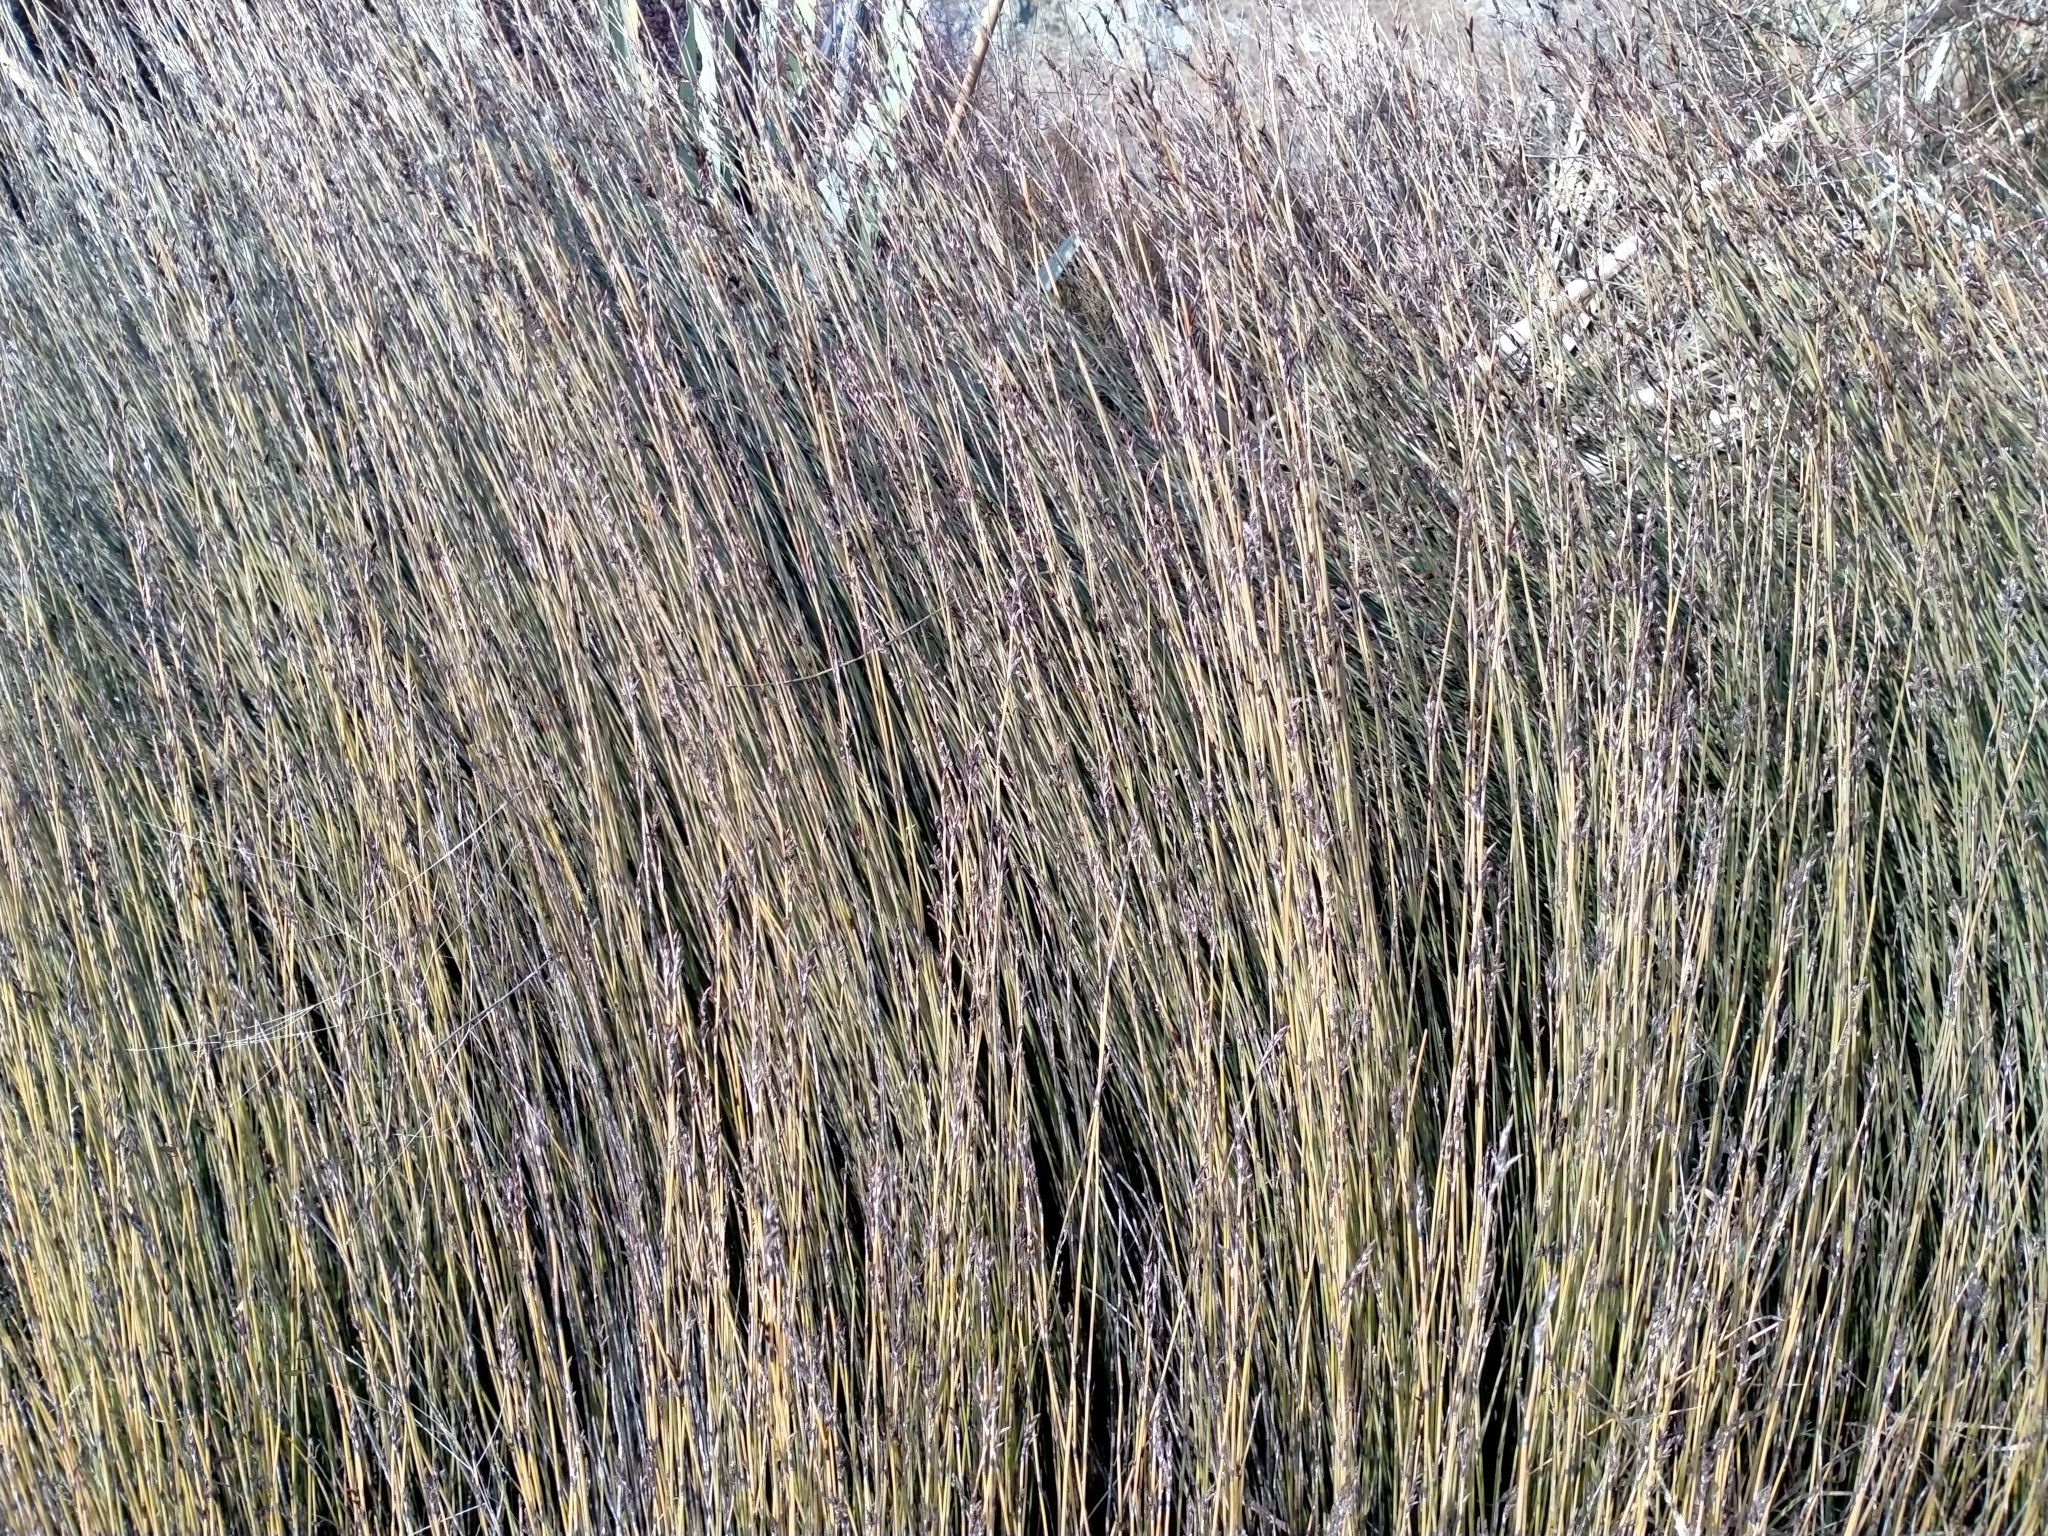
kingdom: Plantae
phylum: Tracheophyta
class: Liliopsida
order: Poales
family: Restionaceae
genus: Apodasmia
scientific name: Apodasmia similis
